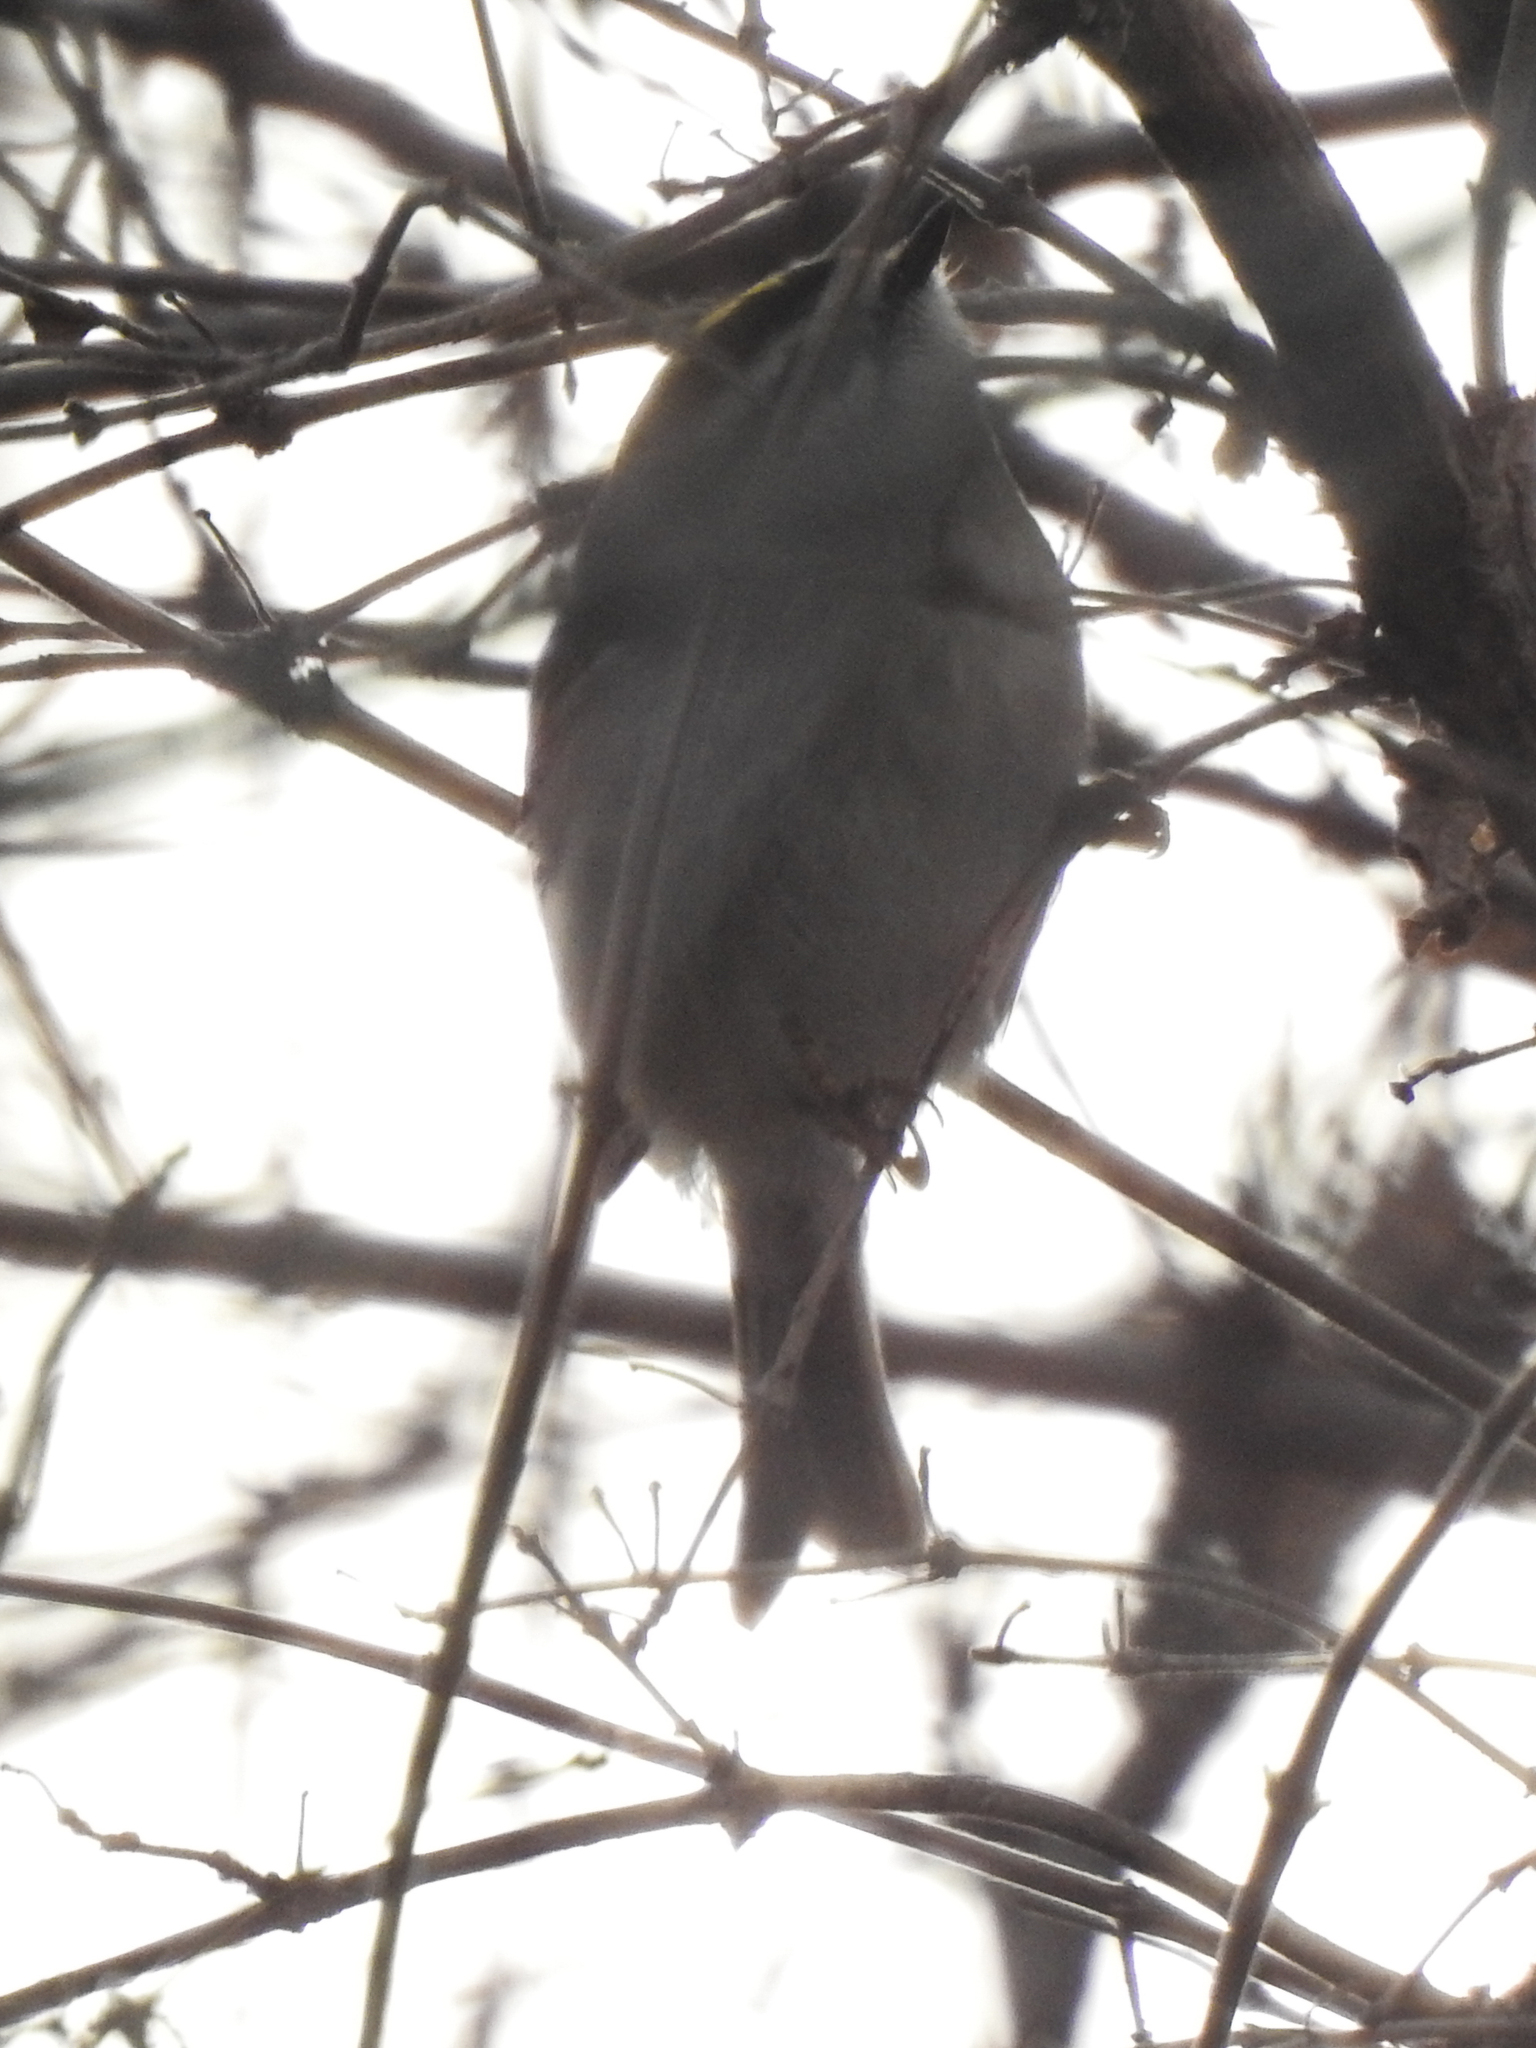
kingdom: Animalia
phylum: Chordata
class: Aves
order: Passeriformes
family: Regulidae
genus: Regulus
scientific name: Regulus satrapa
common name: Golden-crowned kinglet
